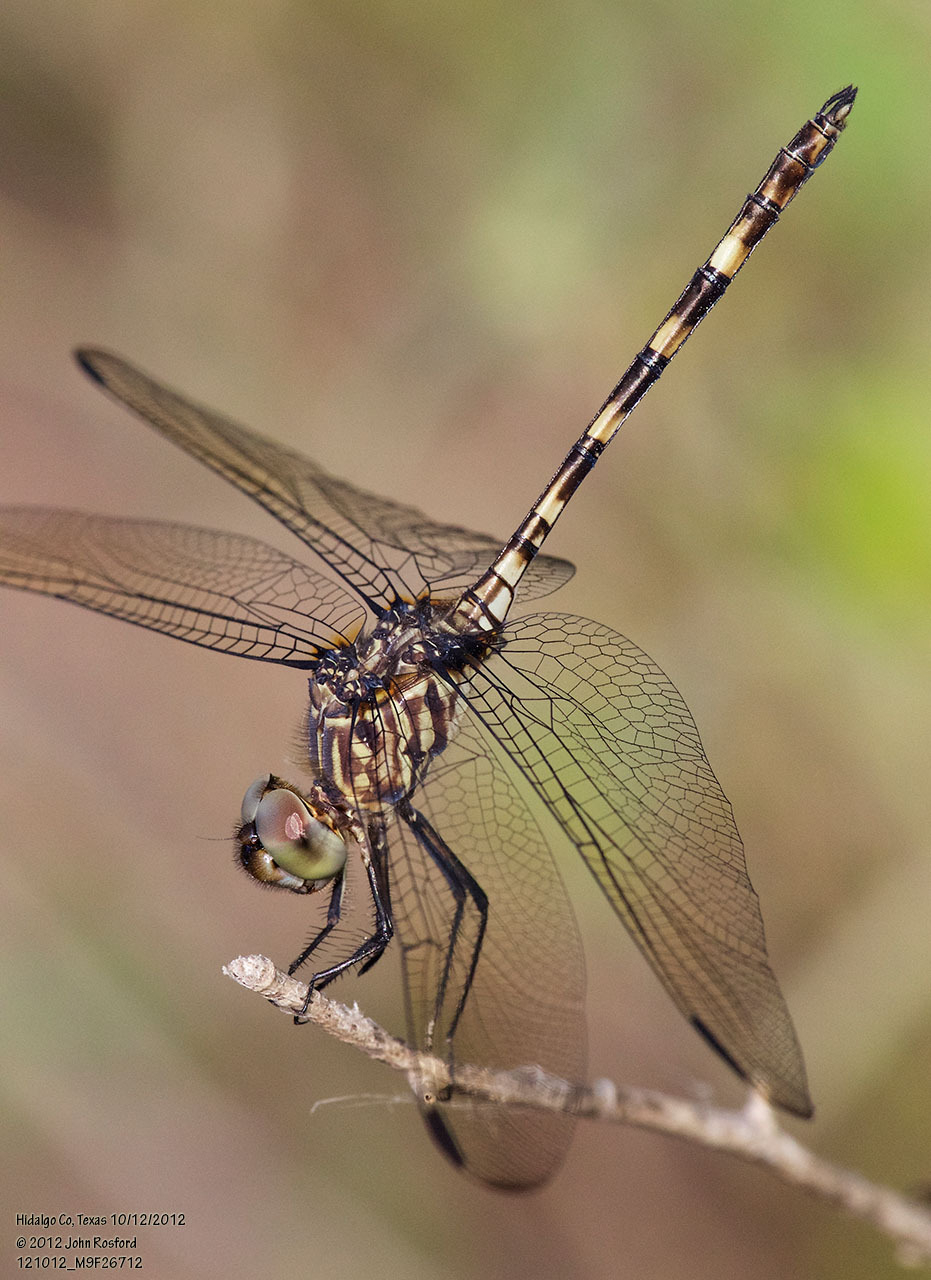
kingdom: Animalia
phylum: Arthropoda
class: Insecta
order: Odonata
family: Libellulidae
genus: Dythemis
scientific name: Dythemis nigrescens
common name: Black setwing
